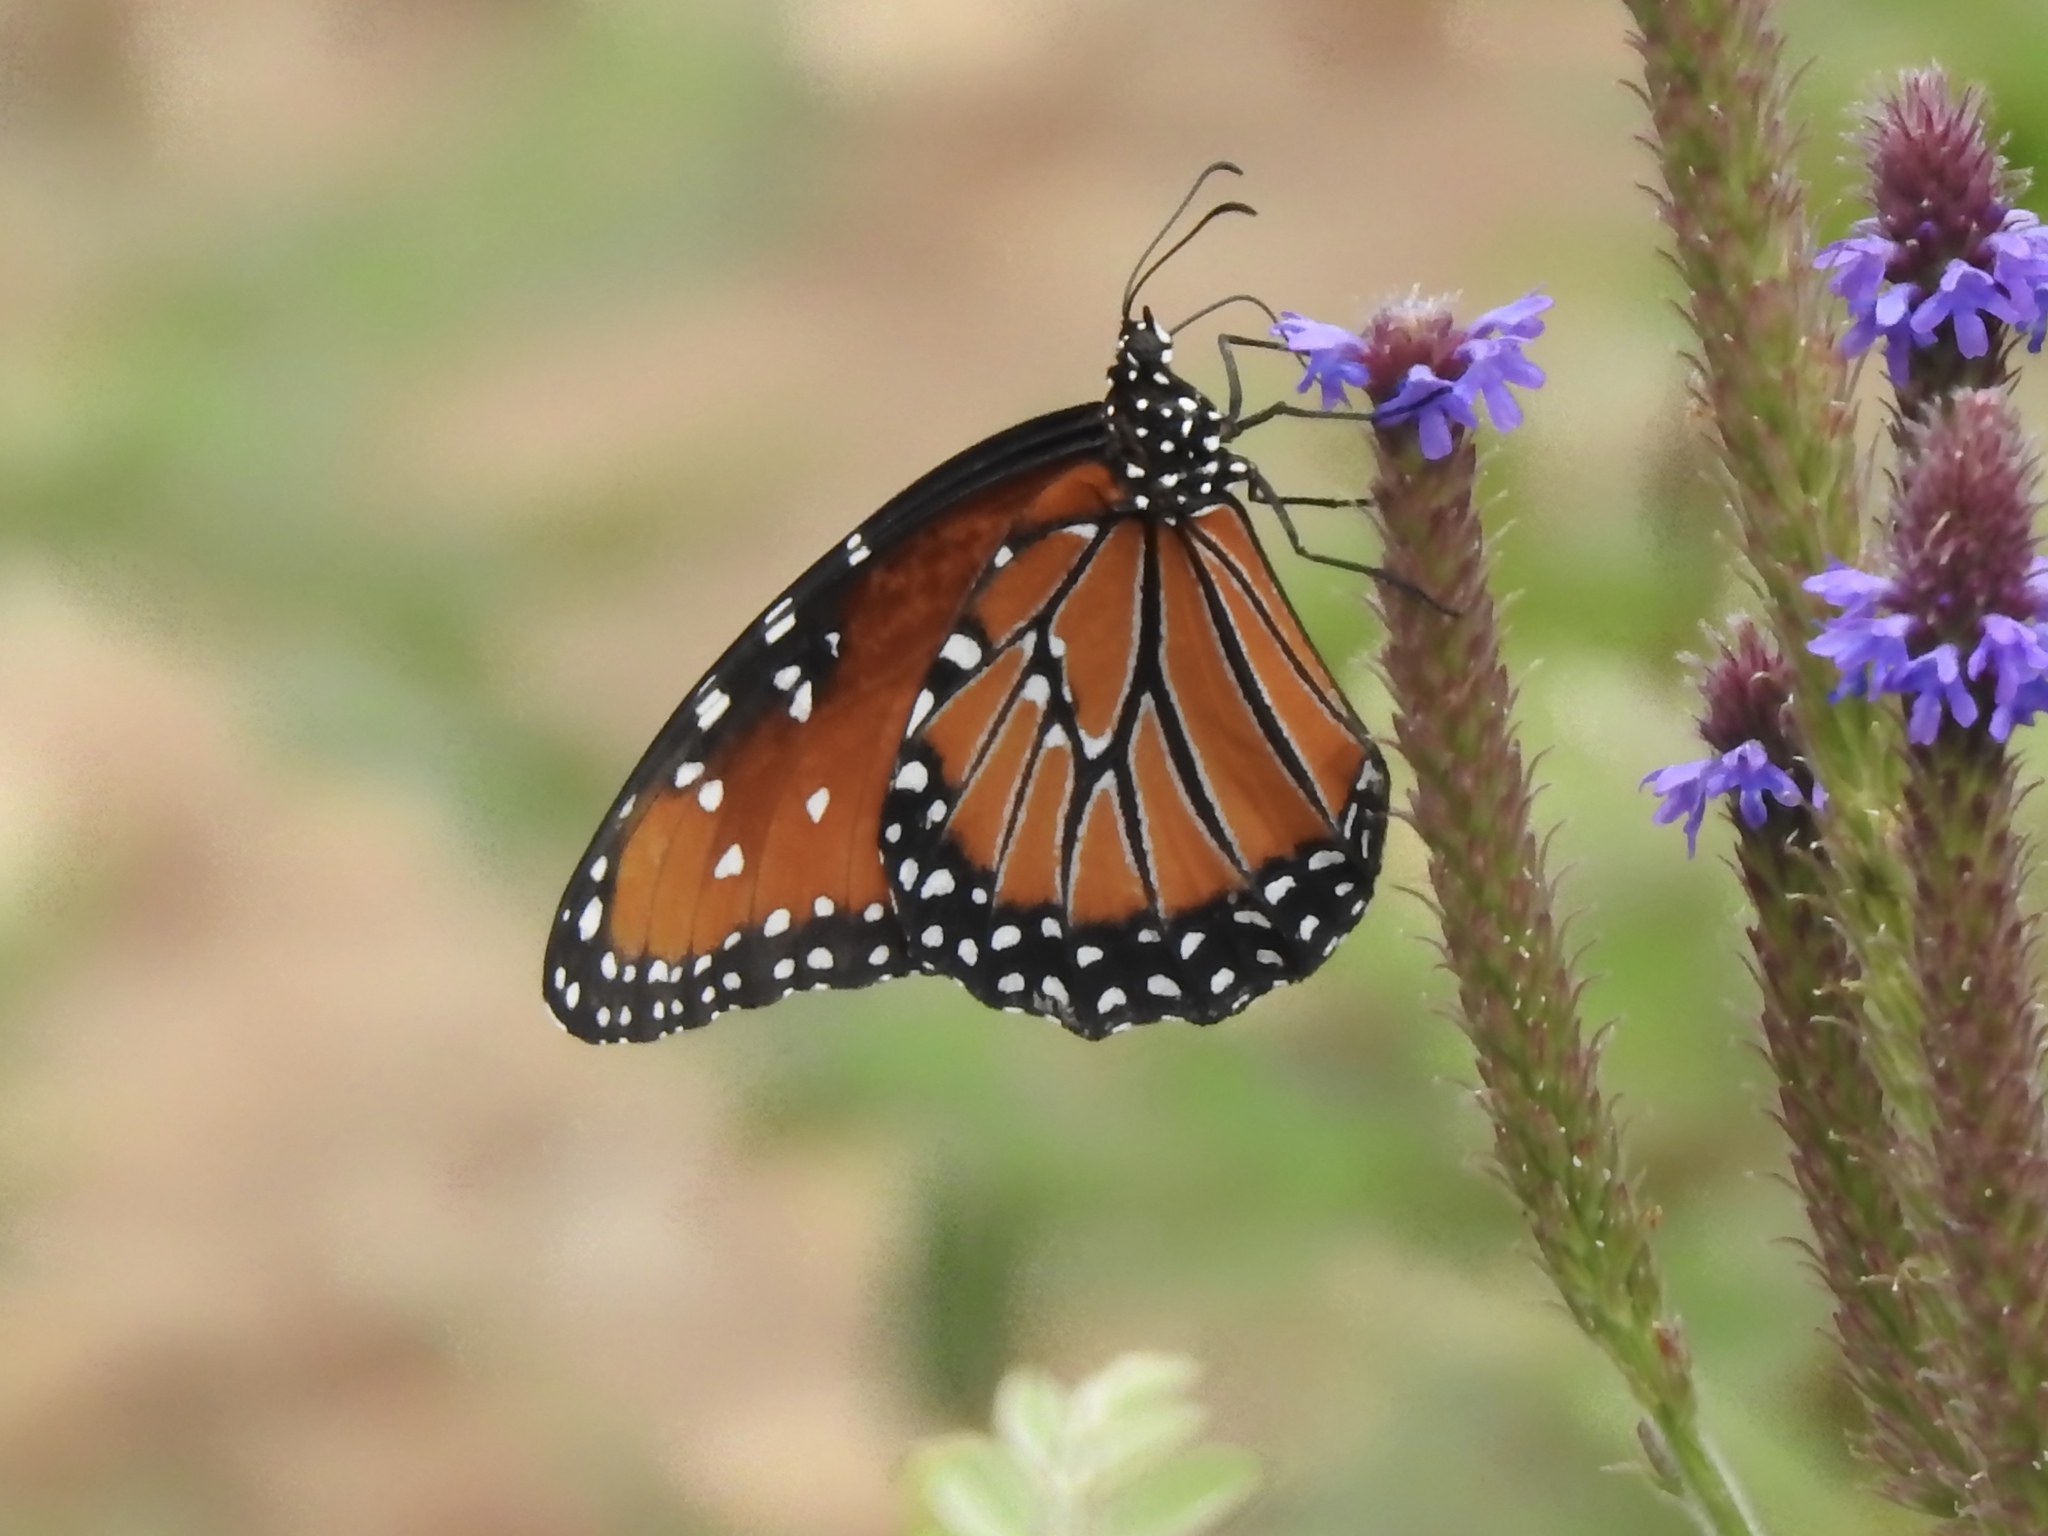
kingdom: Animalia
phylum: Arthropoda
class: Insecta
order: Lepidoptera
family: Nymphalidae
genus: Danaus
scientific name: Danaus gilippus
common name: Queen
